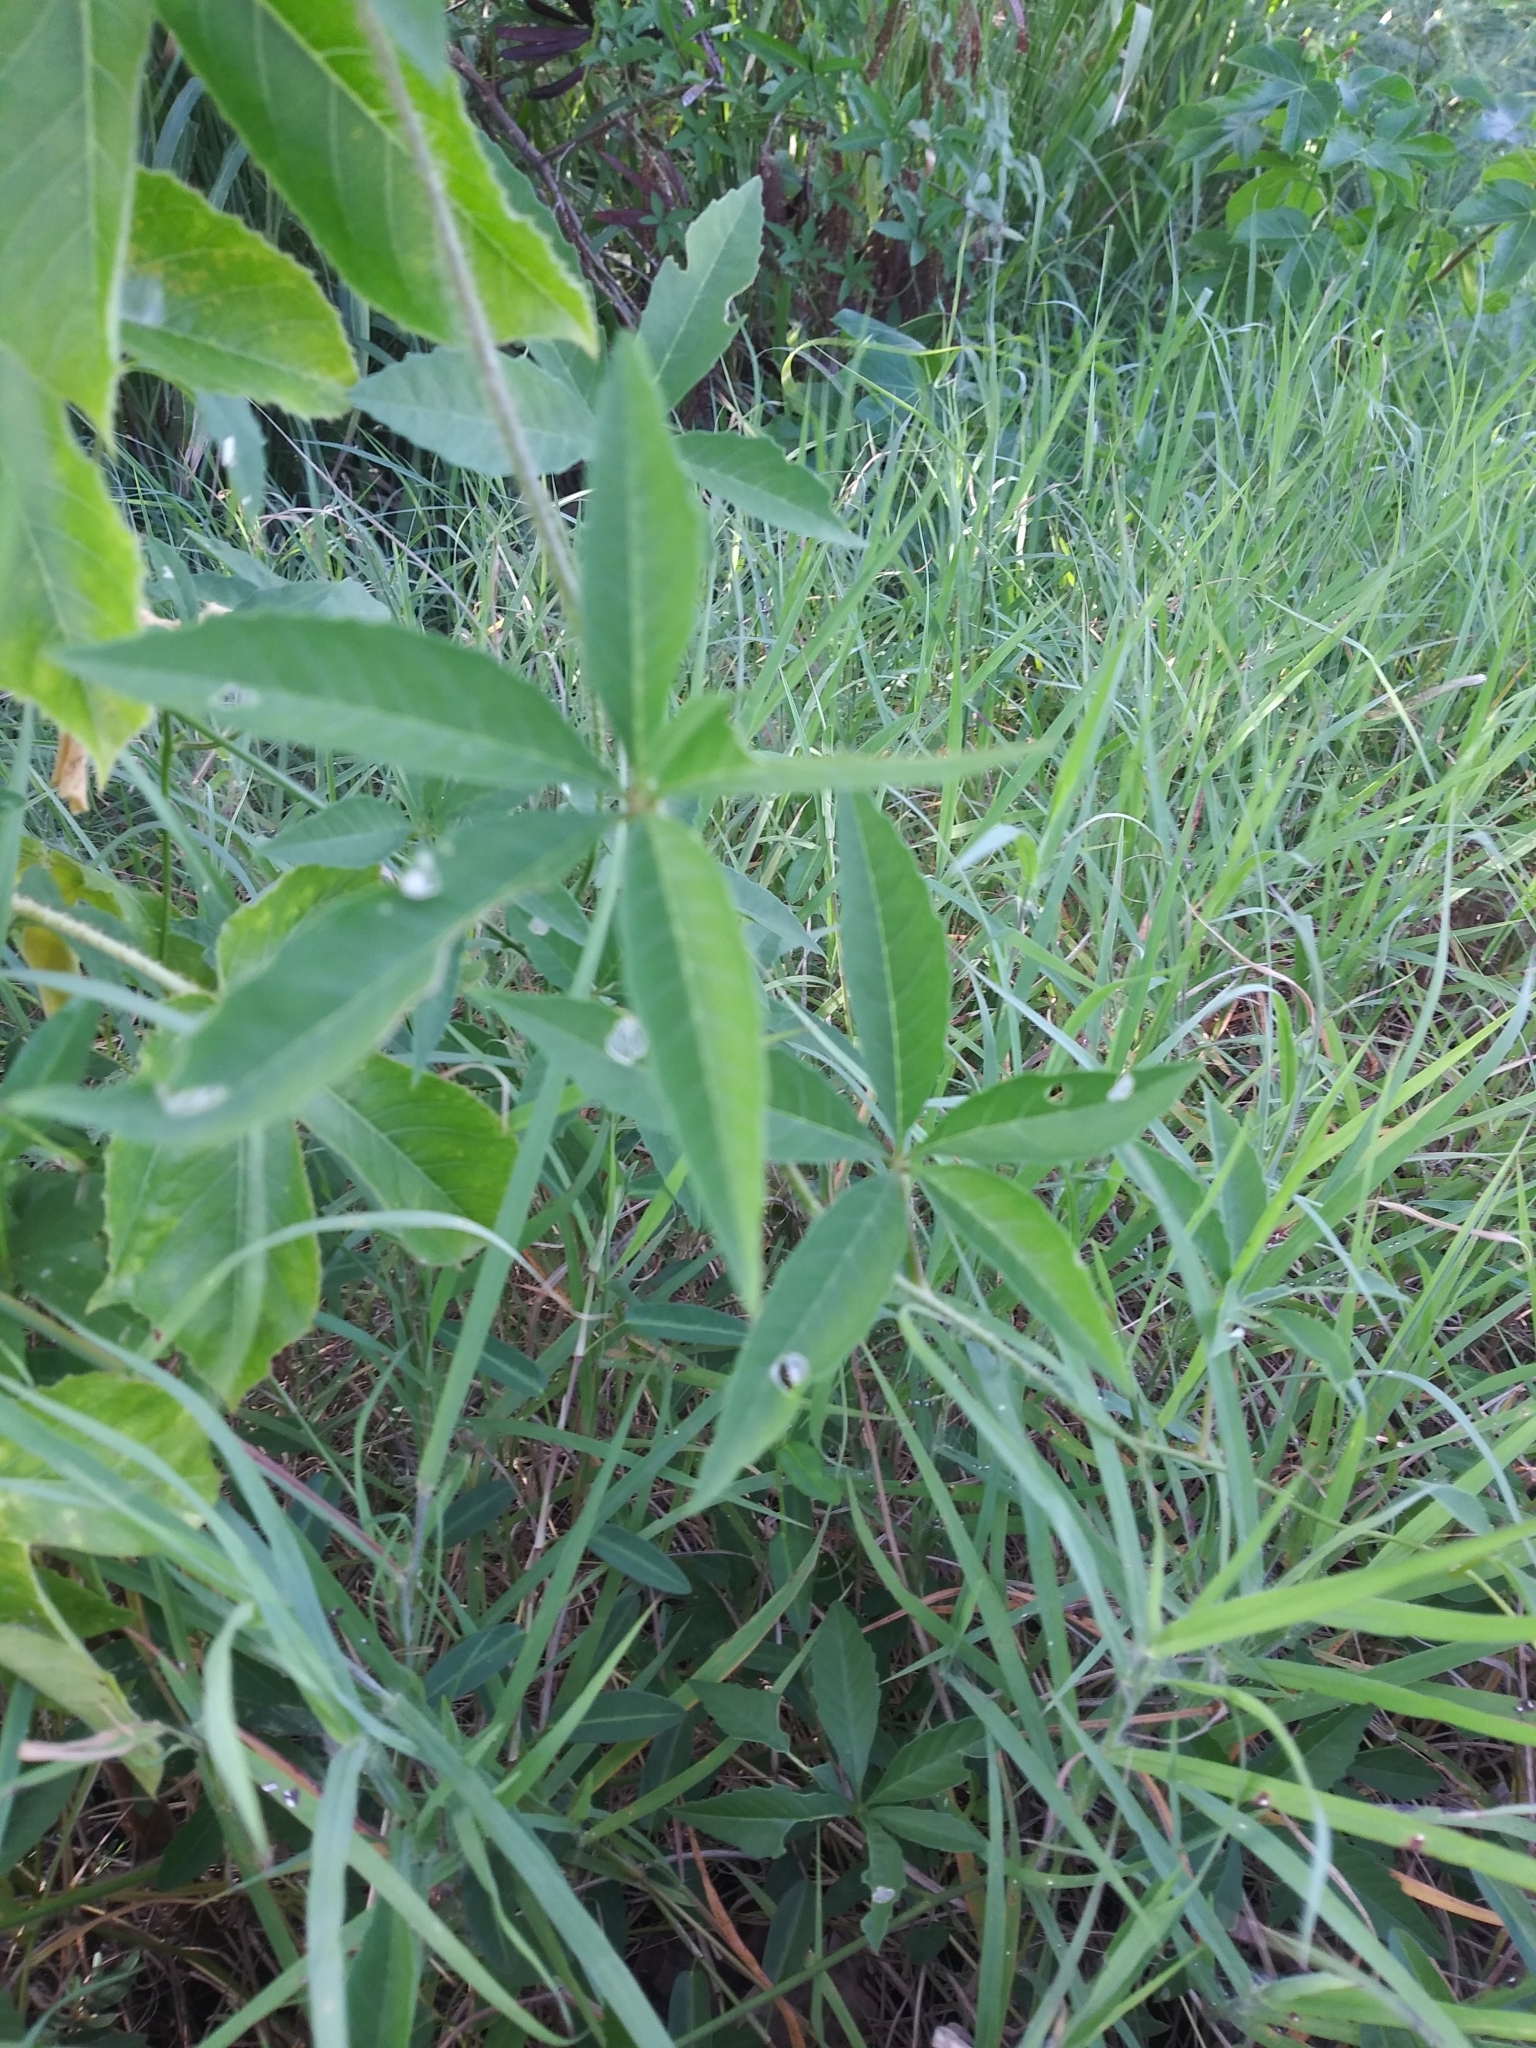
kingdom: Plantae
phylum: Tracheophyta
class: Magnoliopsida
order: Solanales
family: Convolvulaceae
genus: Distimake
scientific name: Distimake quinquefolius
